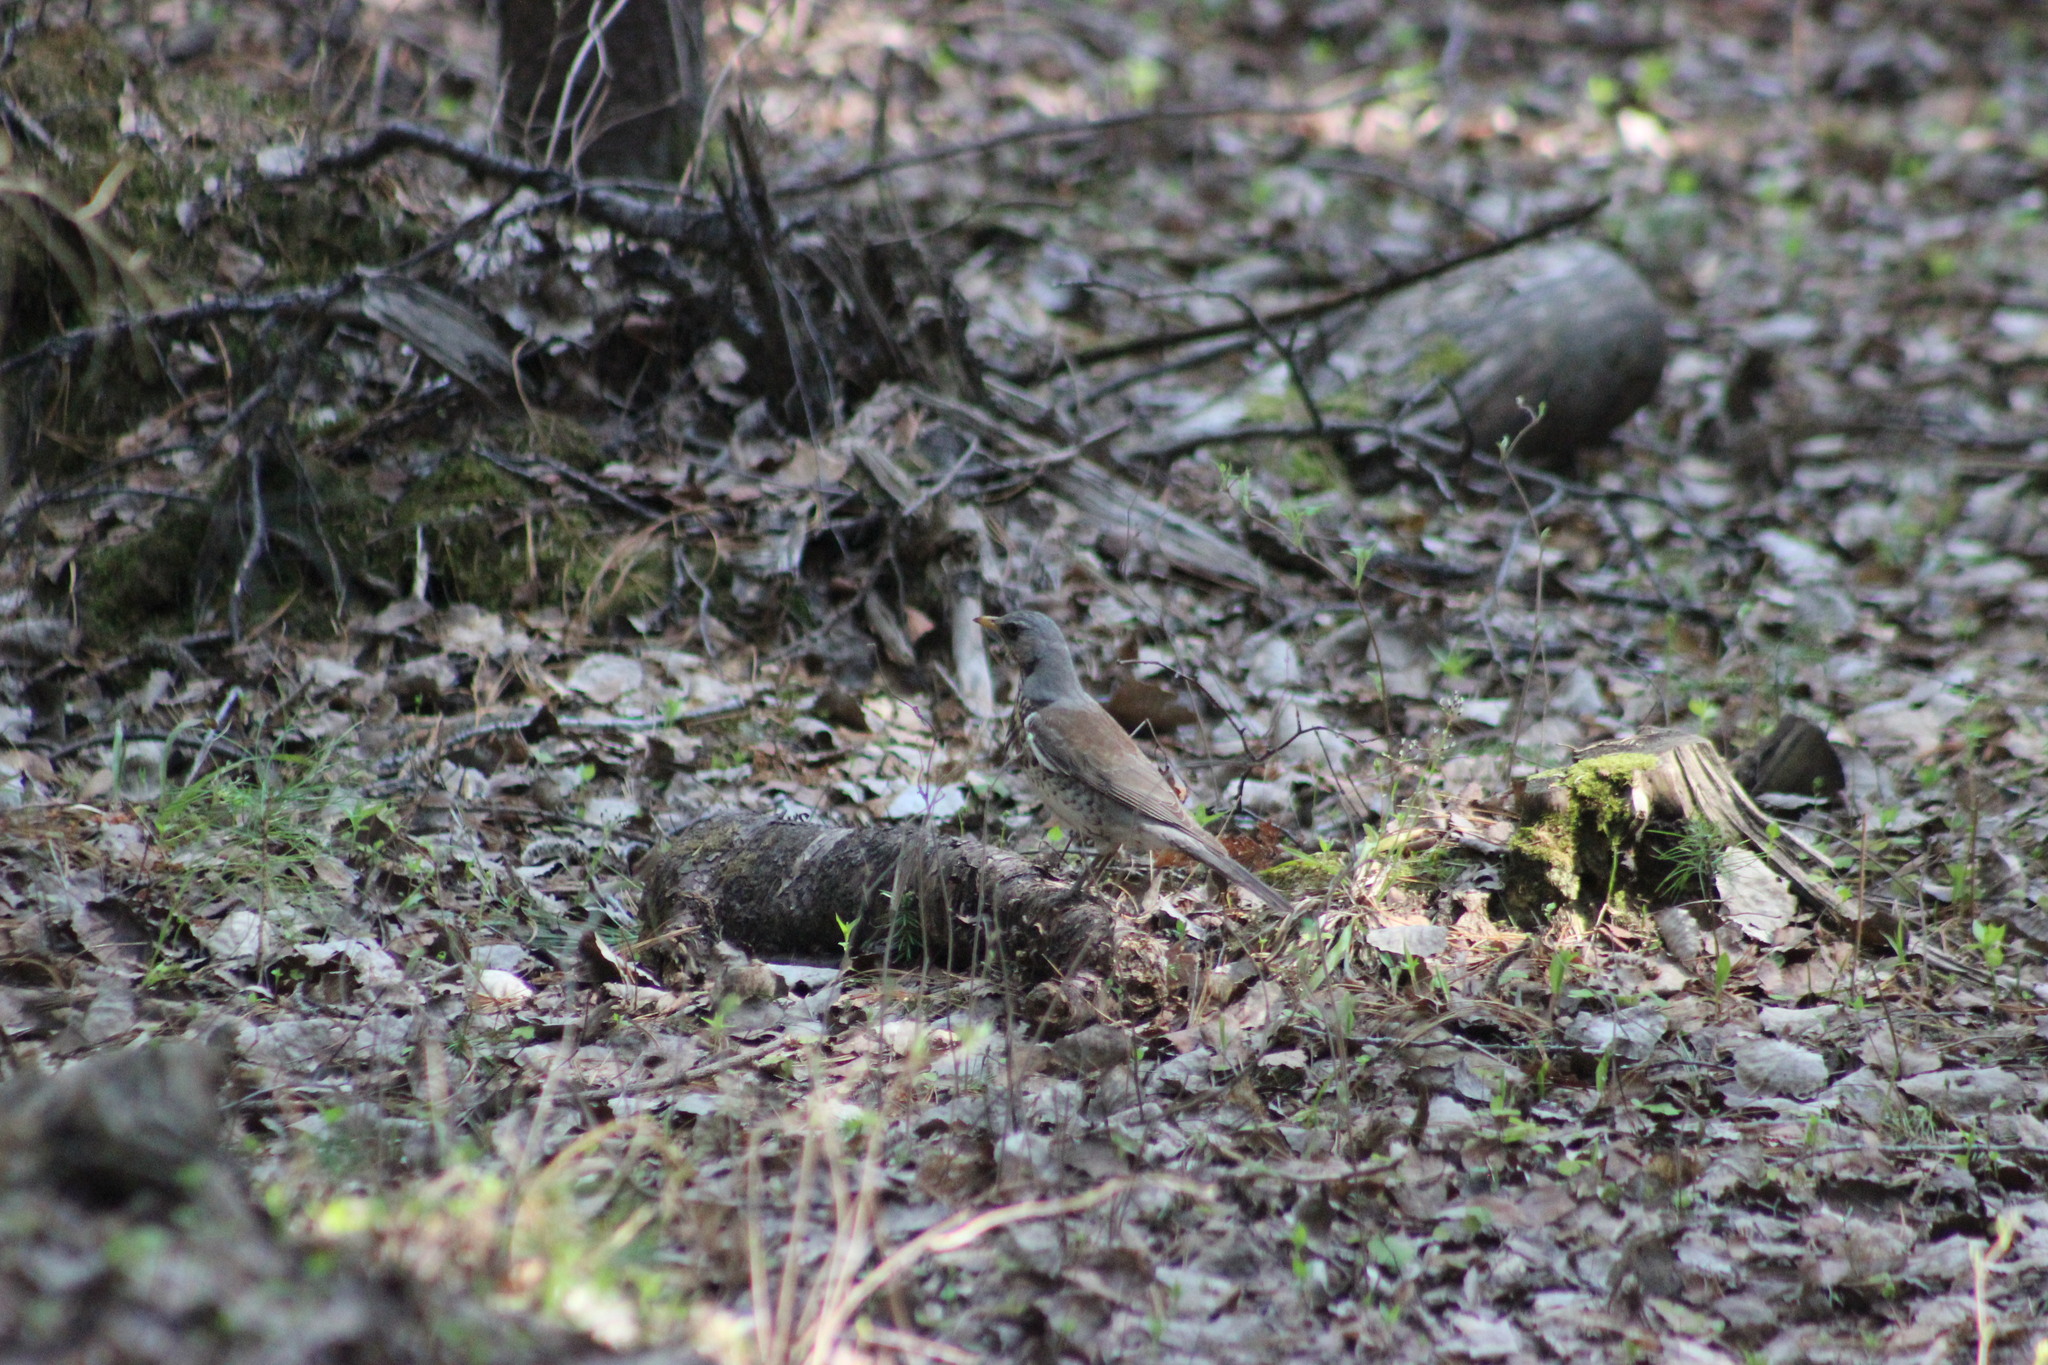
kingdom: Animalia
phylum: Chordata
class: Aves
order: Passeriformes
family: Turdidae
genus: Turdus
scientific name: Turdus pilaris
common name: Fieldfare
